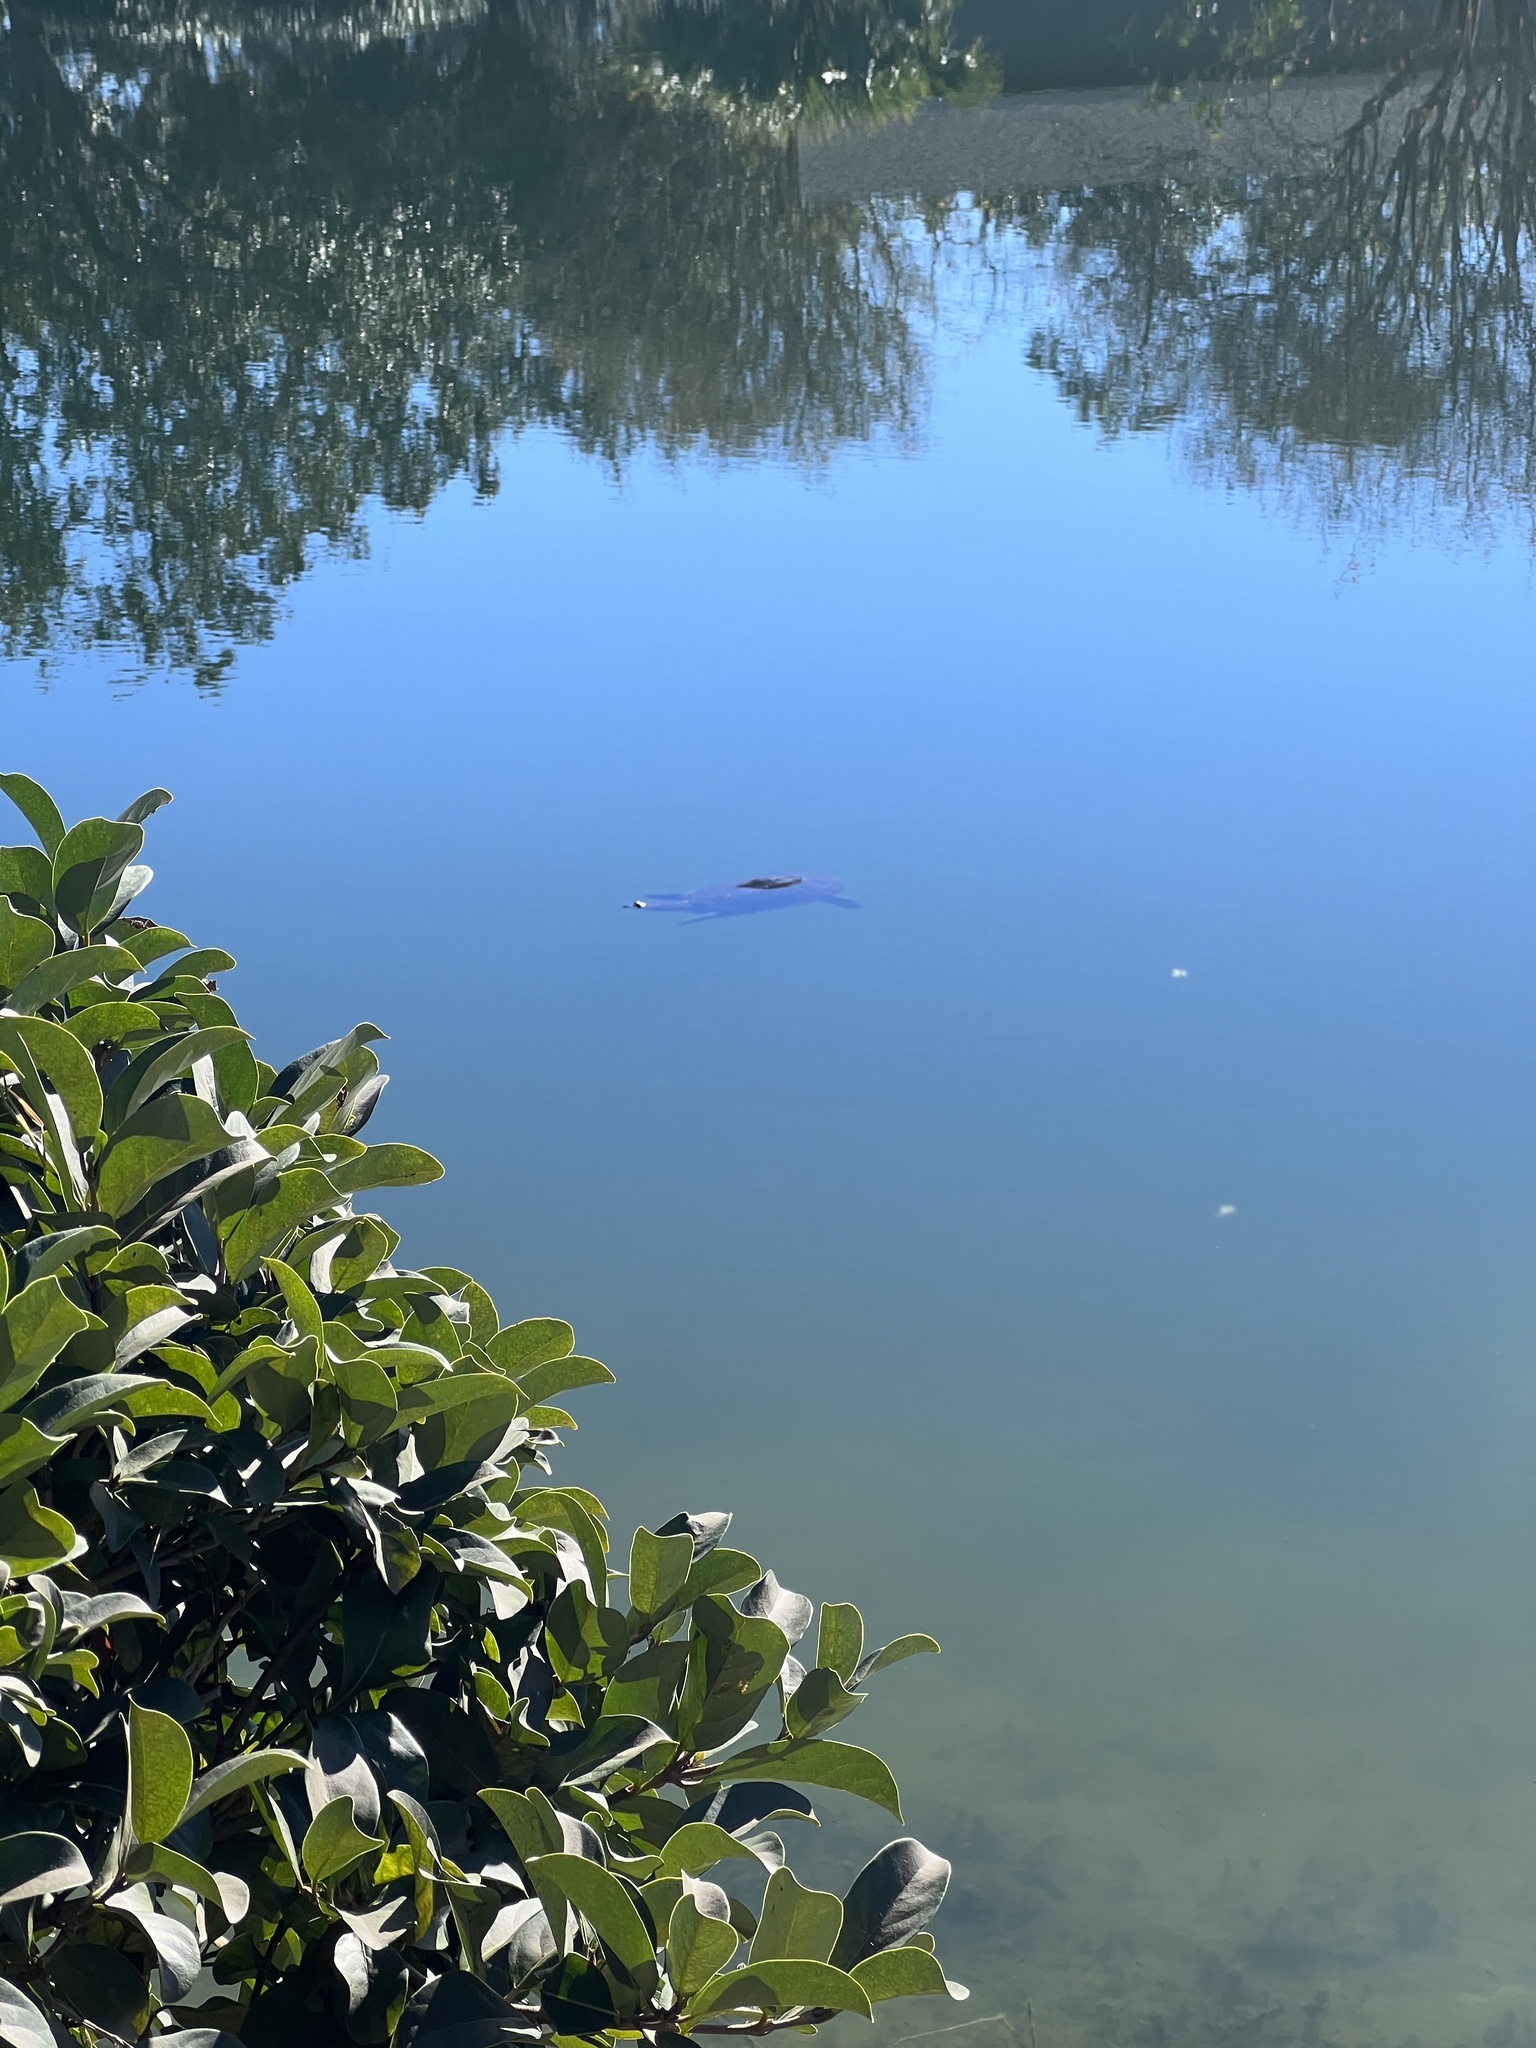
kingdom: Animalia
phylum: Chordata
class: Testudines
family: Trionychidae
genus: Apalone
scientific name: Apalone ferox
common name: Florida softshell turtle
